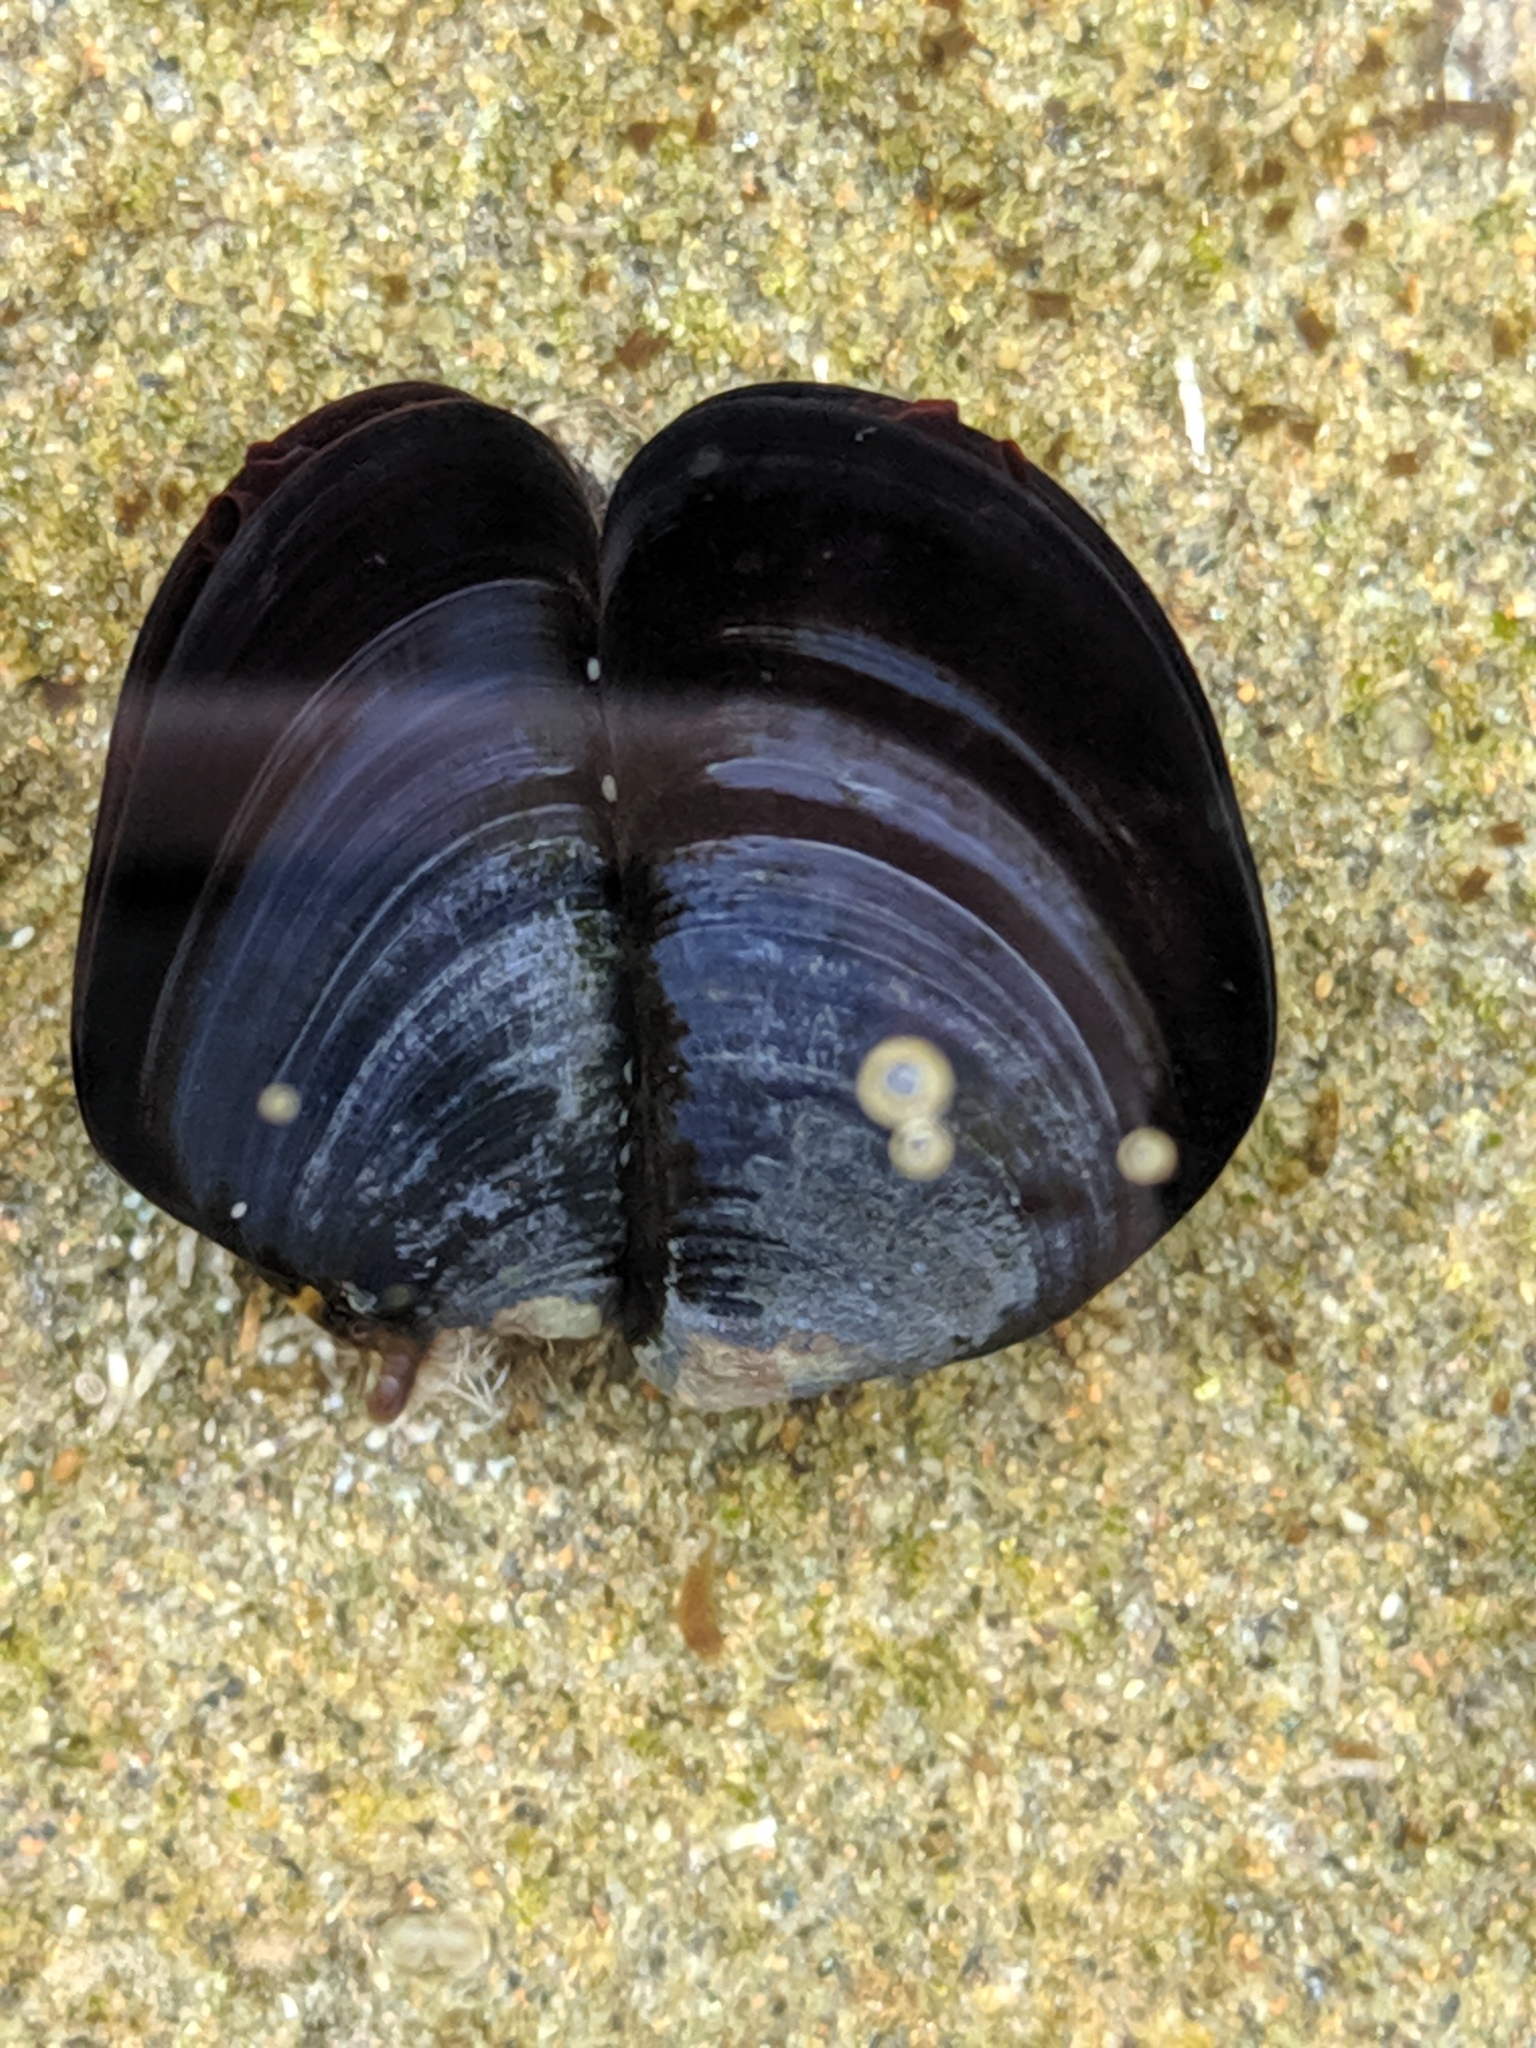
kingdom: Animalia
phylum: Mollusca
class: Bivalvia
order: Mytilida
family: Mytilidae
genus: Mytilus
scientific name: Mytilus
